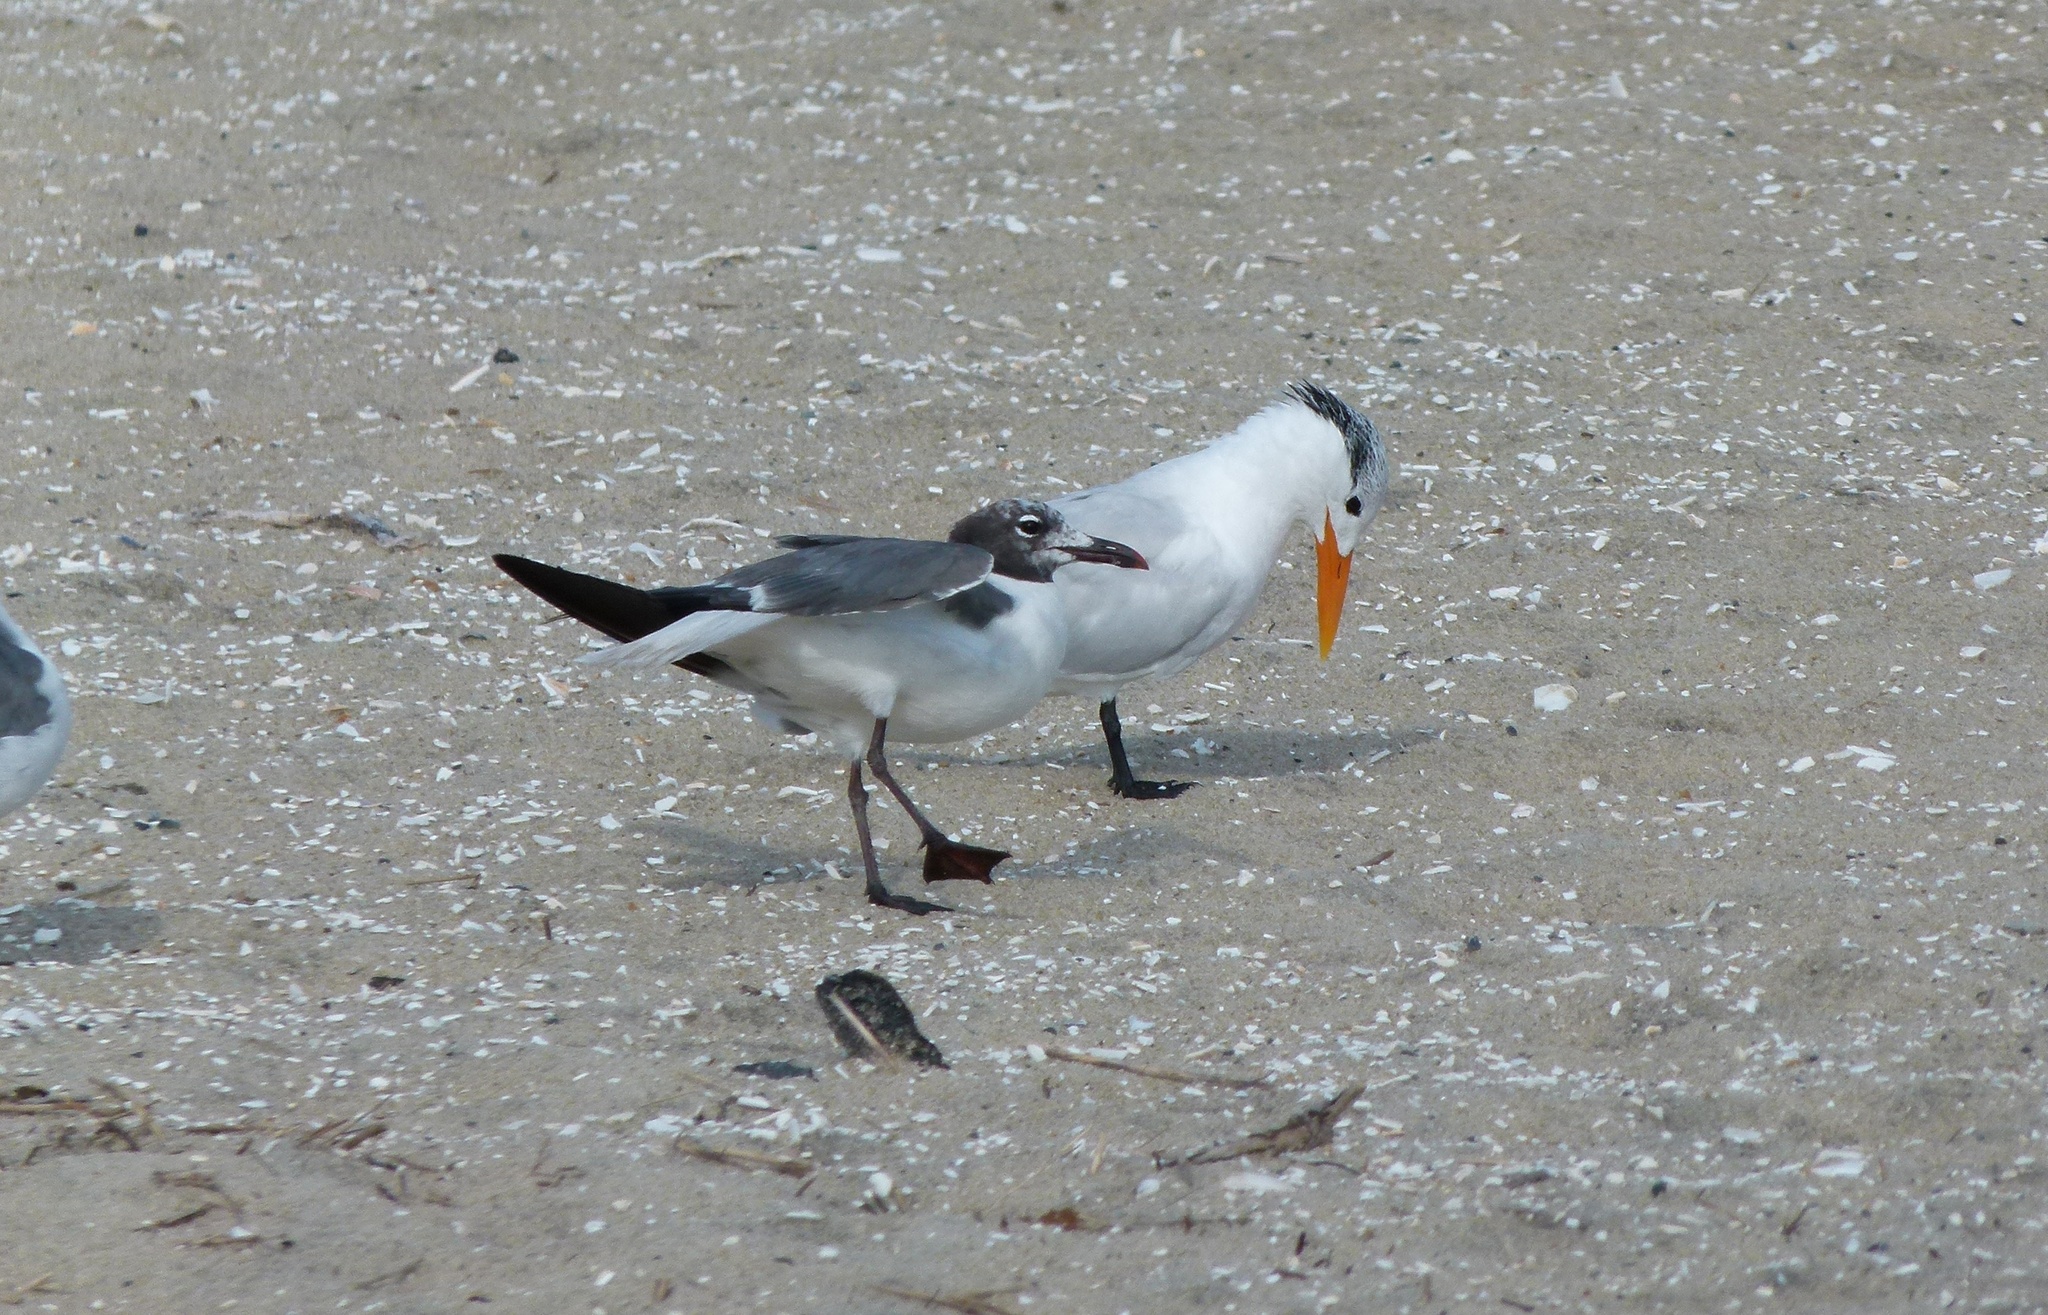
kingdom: Animalia
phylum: Chordata
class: Aves
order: Charadriiformes
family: Laridae
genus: Leucophaeus
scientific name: Leucophaeus atricilla
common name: Laughing gull
